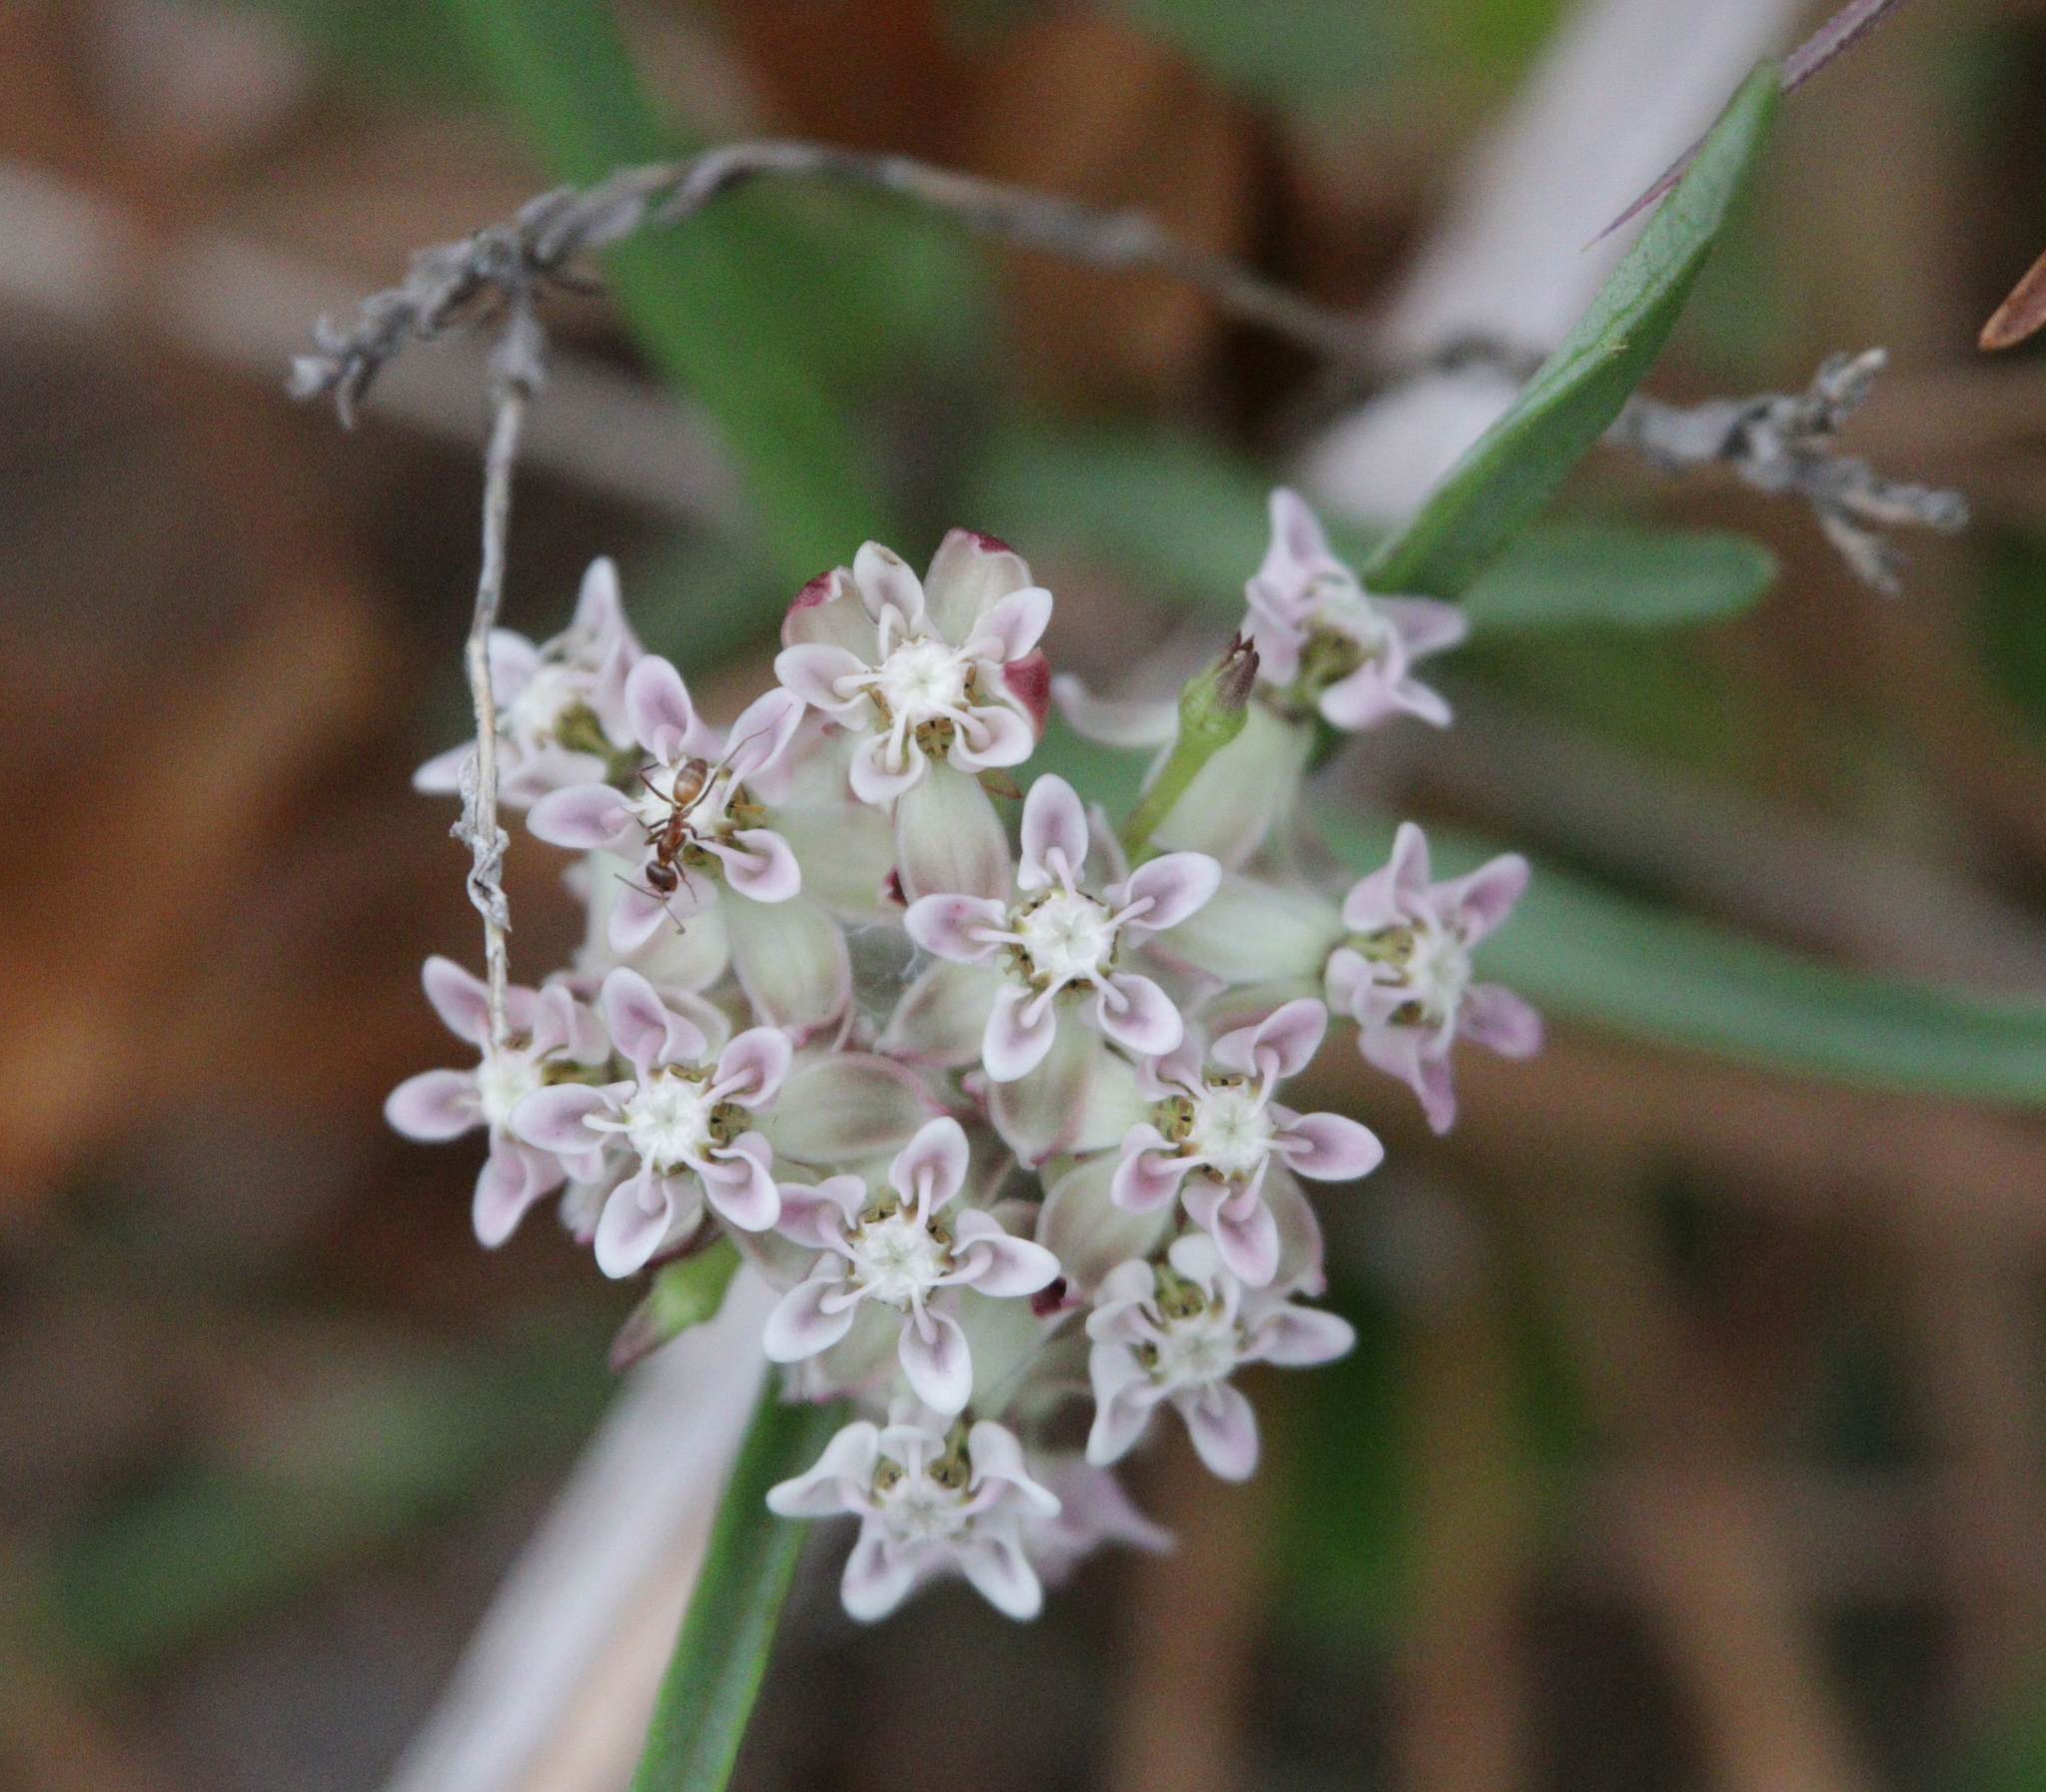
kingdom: Plantae
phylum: Tracheophyta
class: Magnoliopsida
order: Gentianales
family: Apocynaceae
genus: Asclepias
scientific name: Asclepias michauxii
